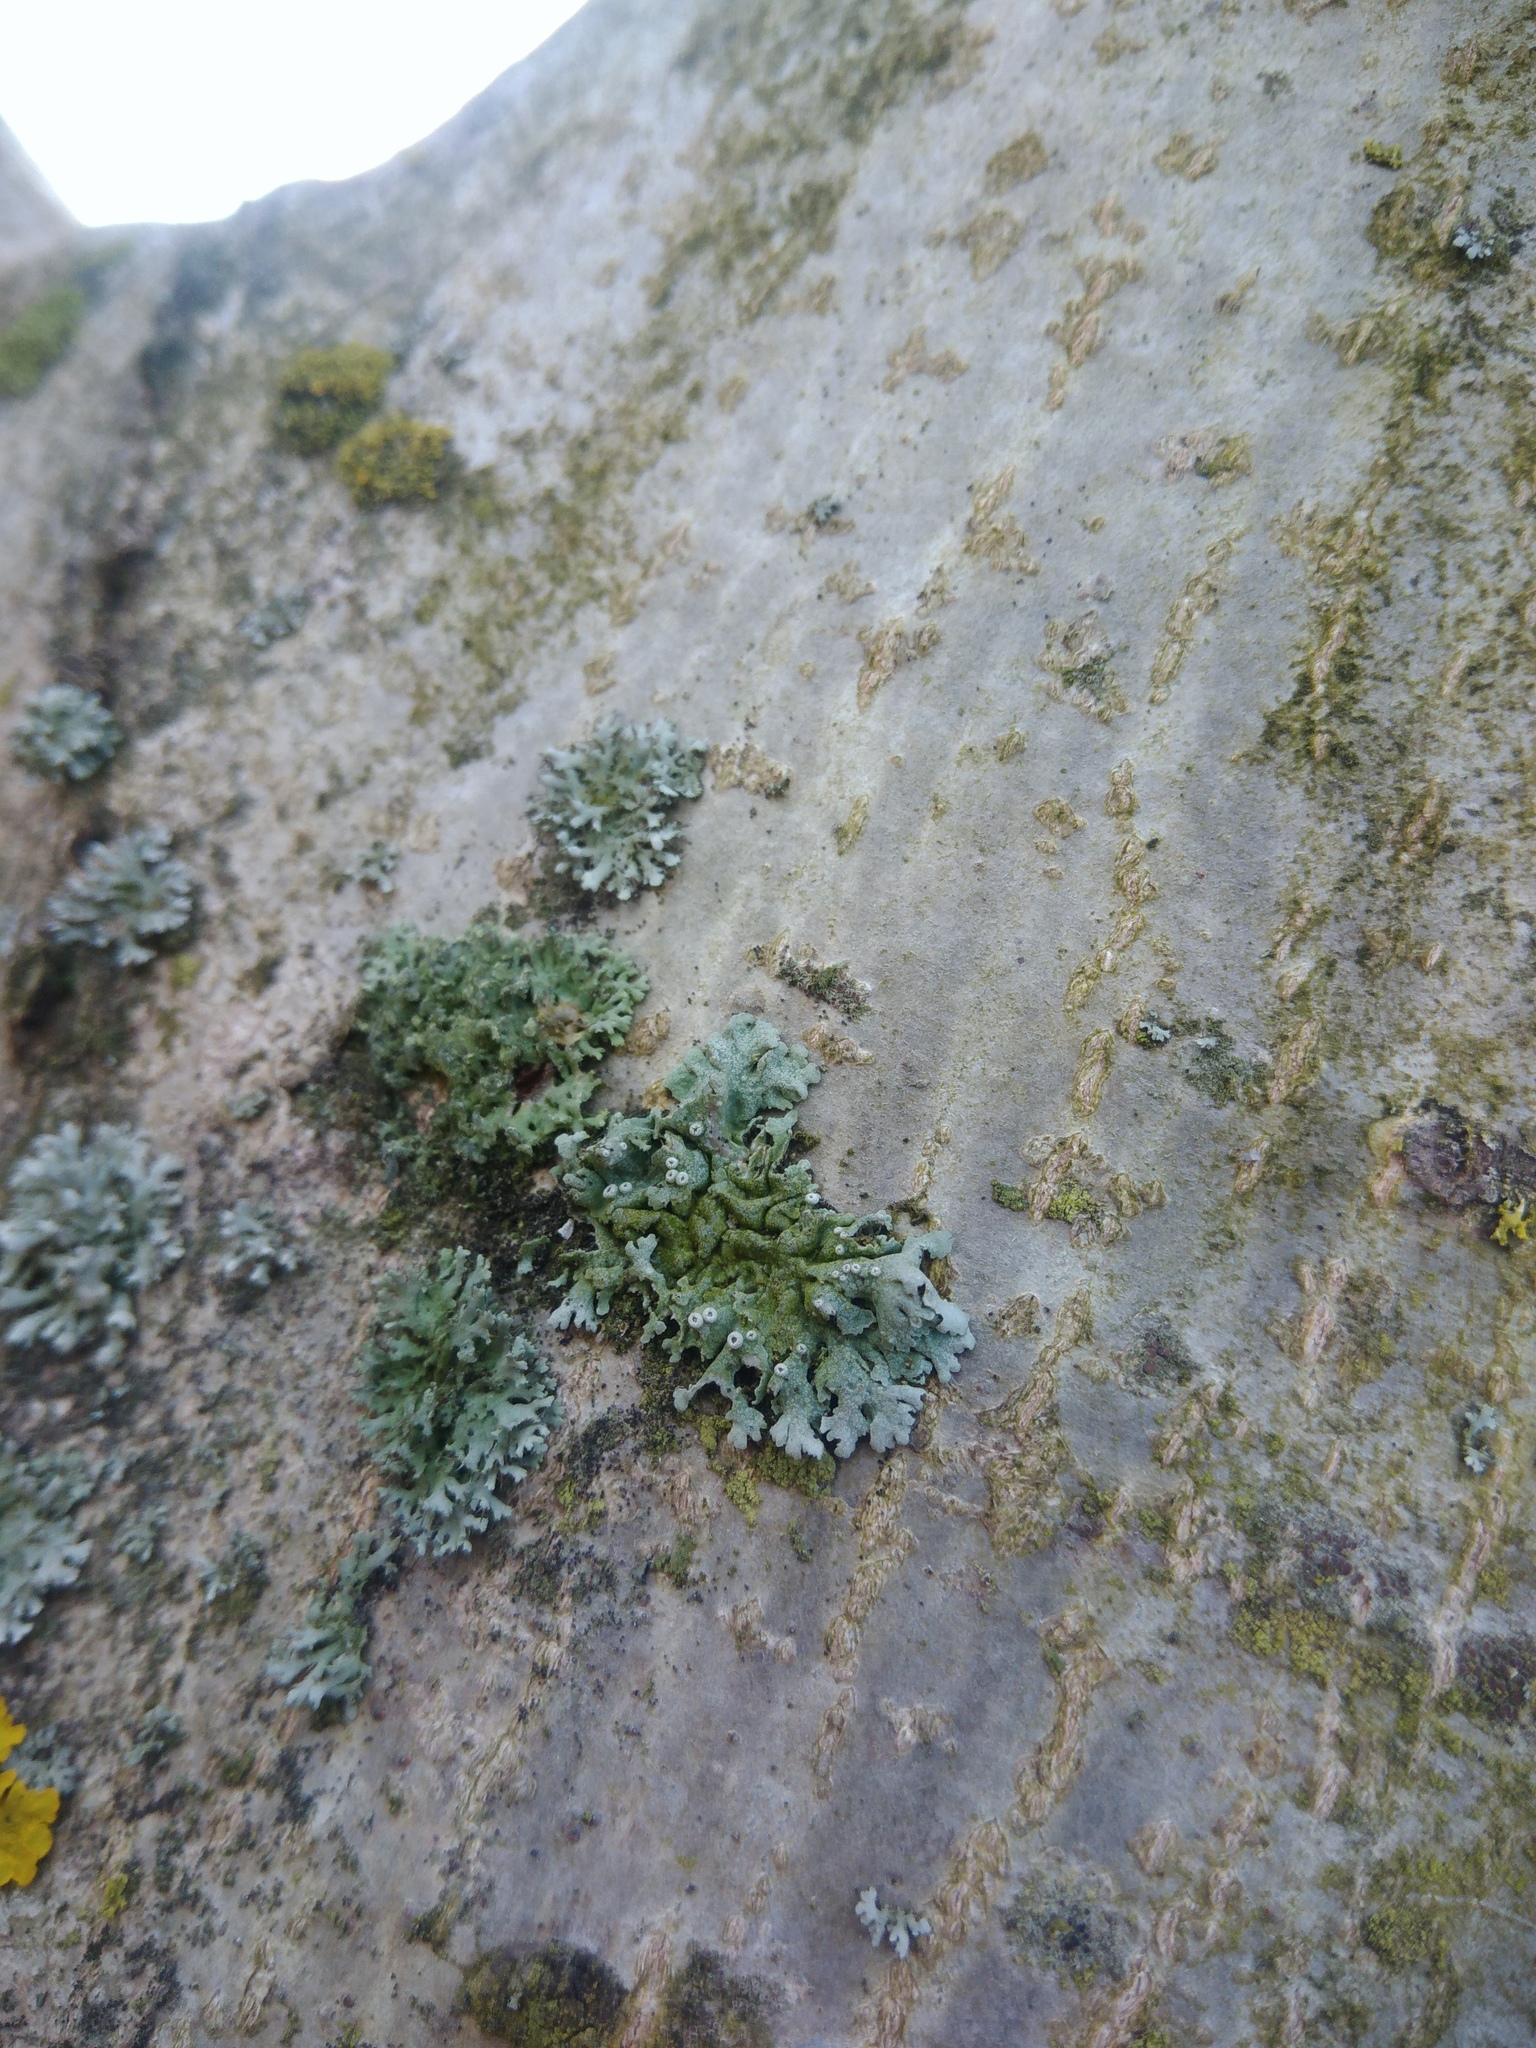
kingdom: Fungi
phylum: Ascomycota
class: Lecanoromycetes
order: Caliciales
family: Physciaceae
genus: Physcia
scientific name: Physcia stellaris
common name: Star rosette lichen
